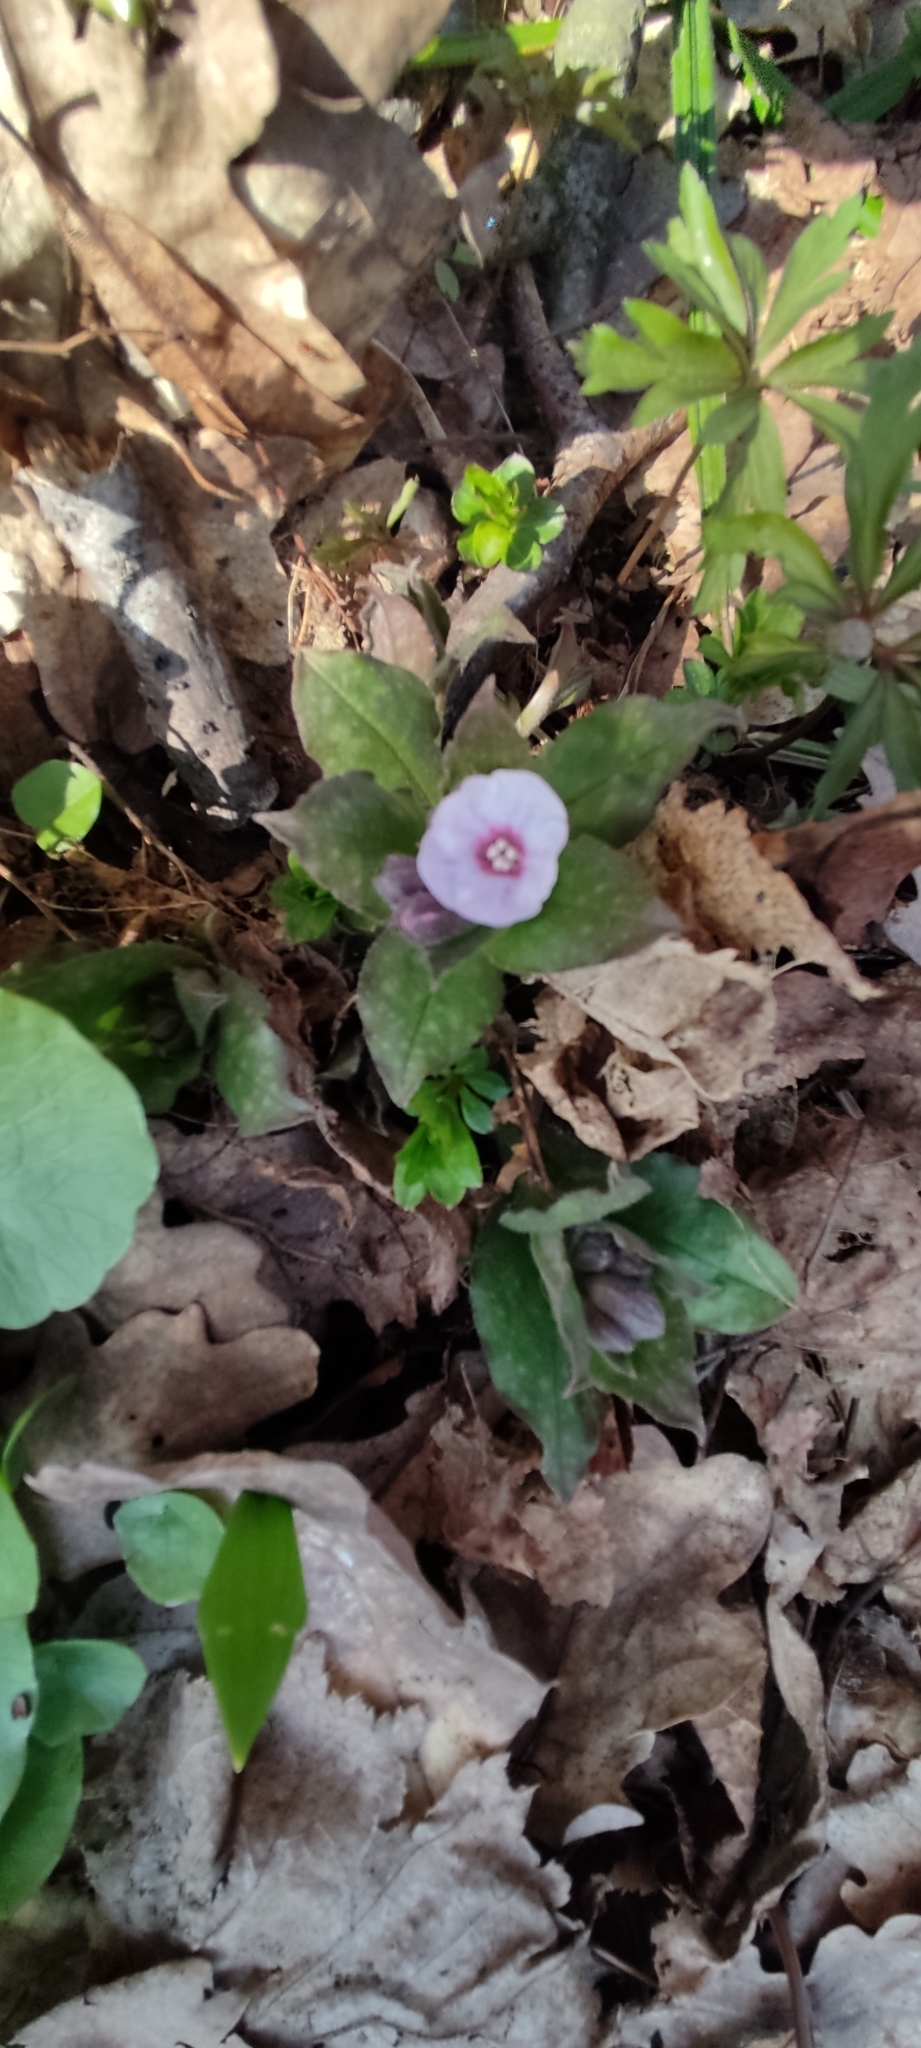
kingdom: Plantae
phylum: Tracheophyta
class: Magnoliopsida
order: Boraginales
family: Boraginaceae
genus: Pulmonaria
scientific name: Pulmonaria obscura
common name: Suffolk lungwort
